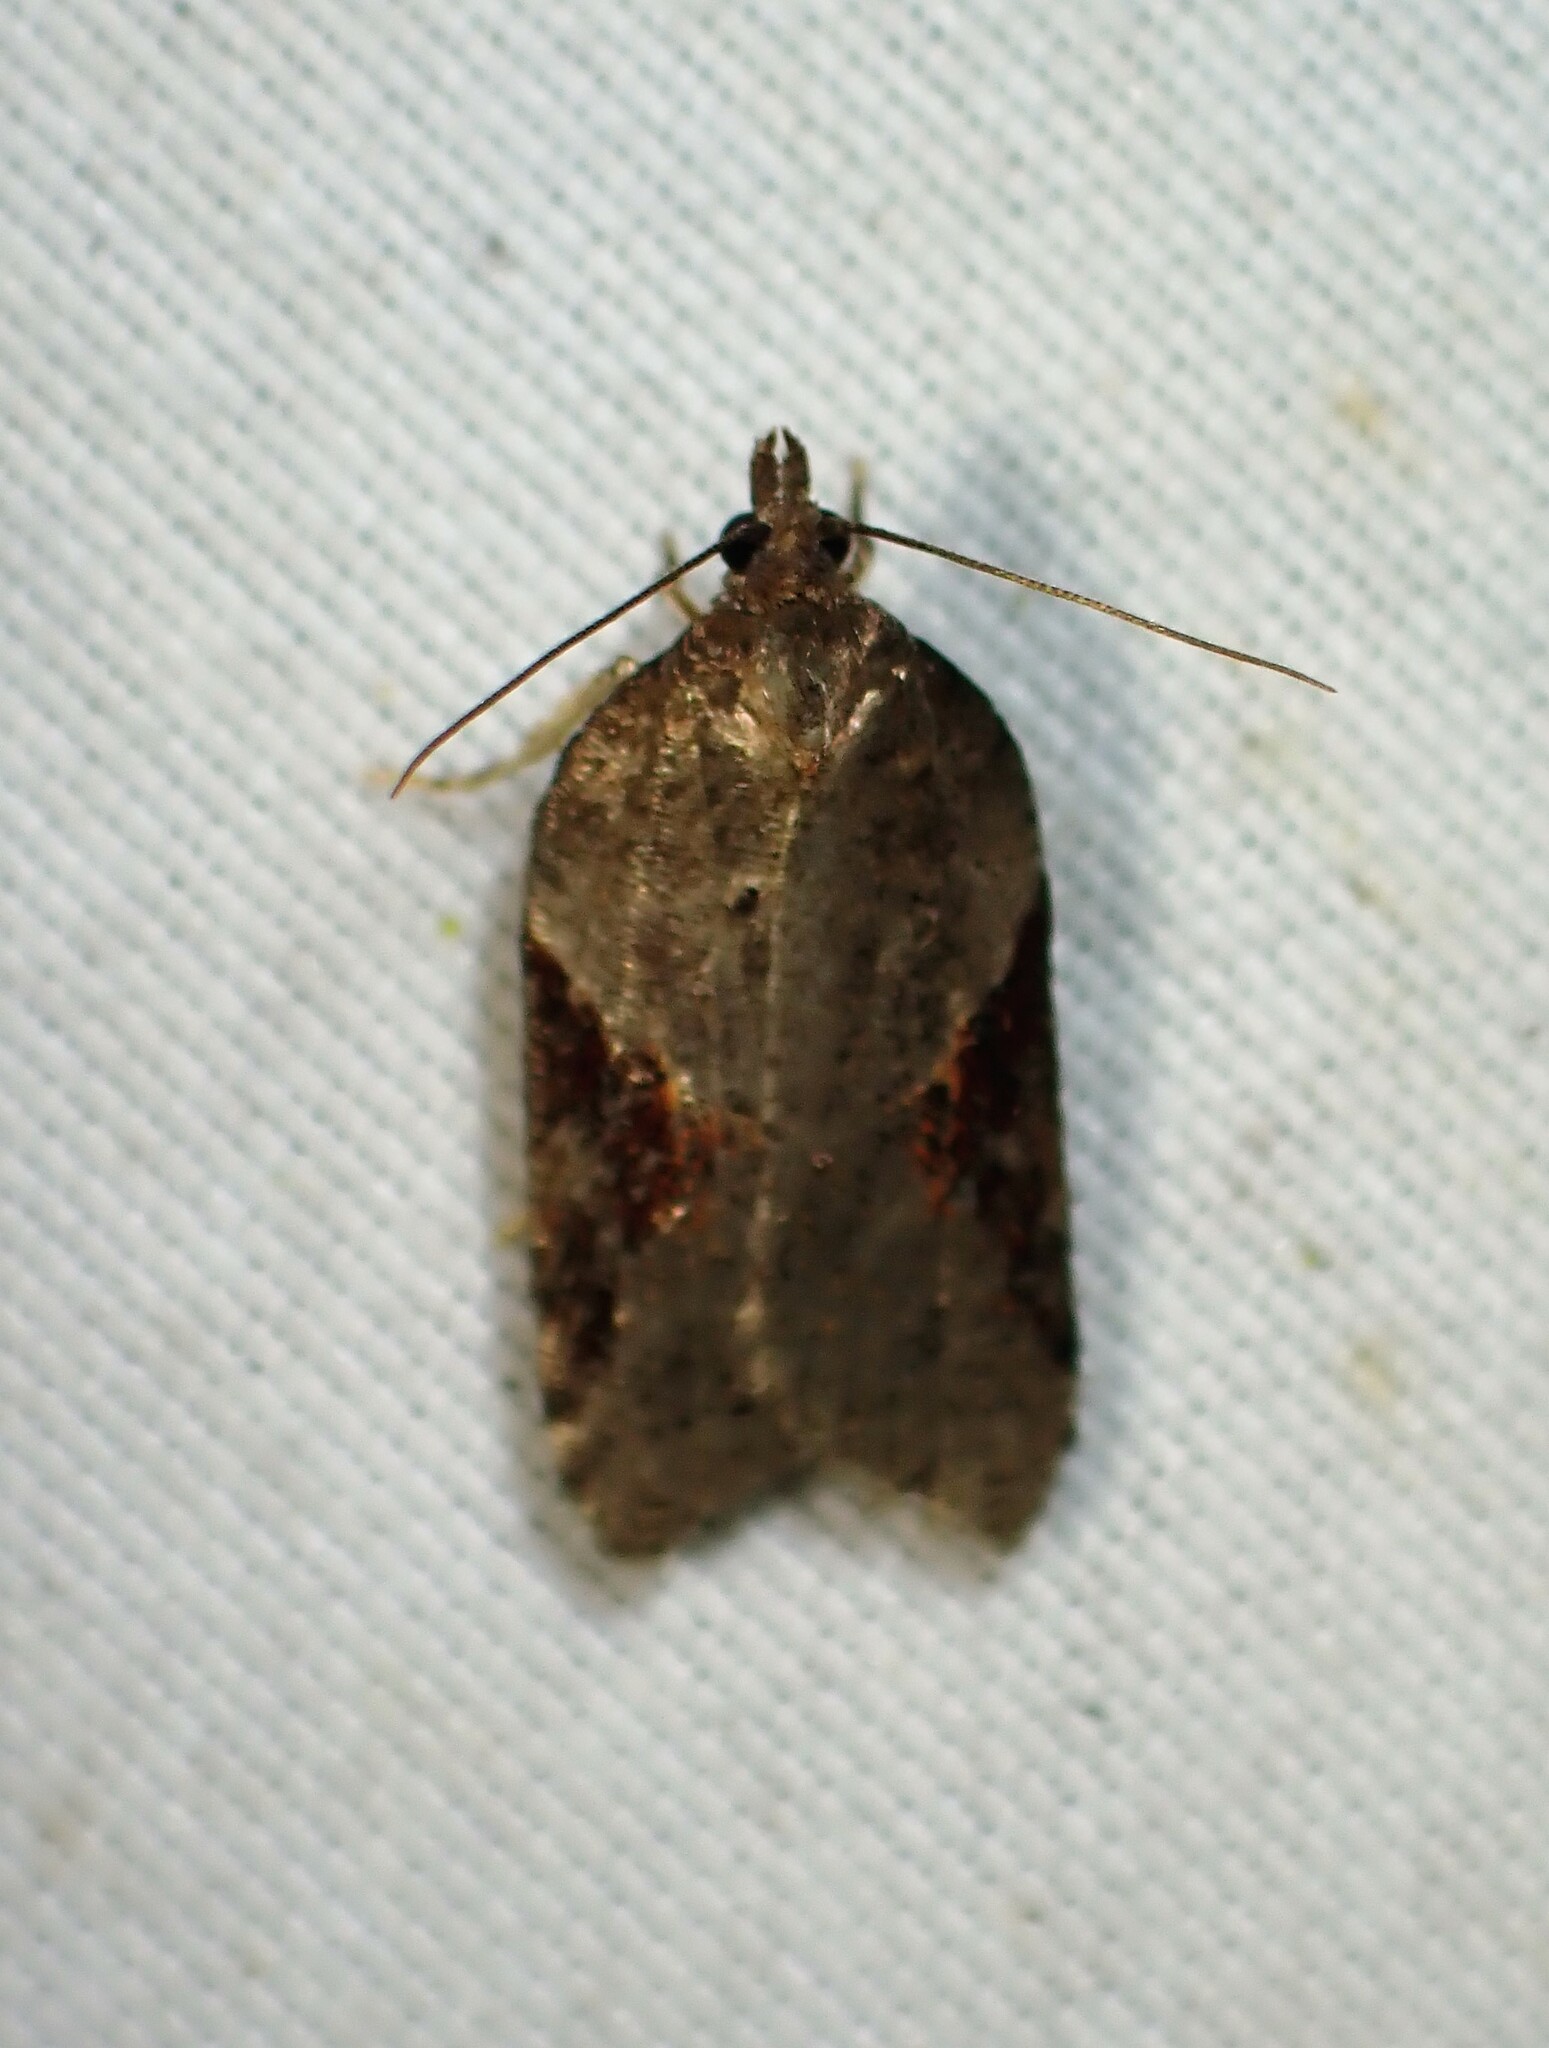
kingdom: Animalia
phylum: Arthropoda
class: Insecta
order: Lepidoptera
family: Tortricidae
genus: Acleris
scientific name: Acleris macdunnoughi
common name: Macdunnough's acleris
